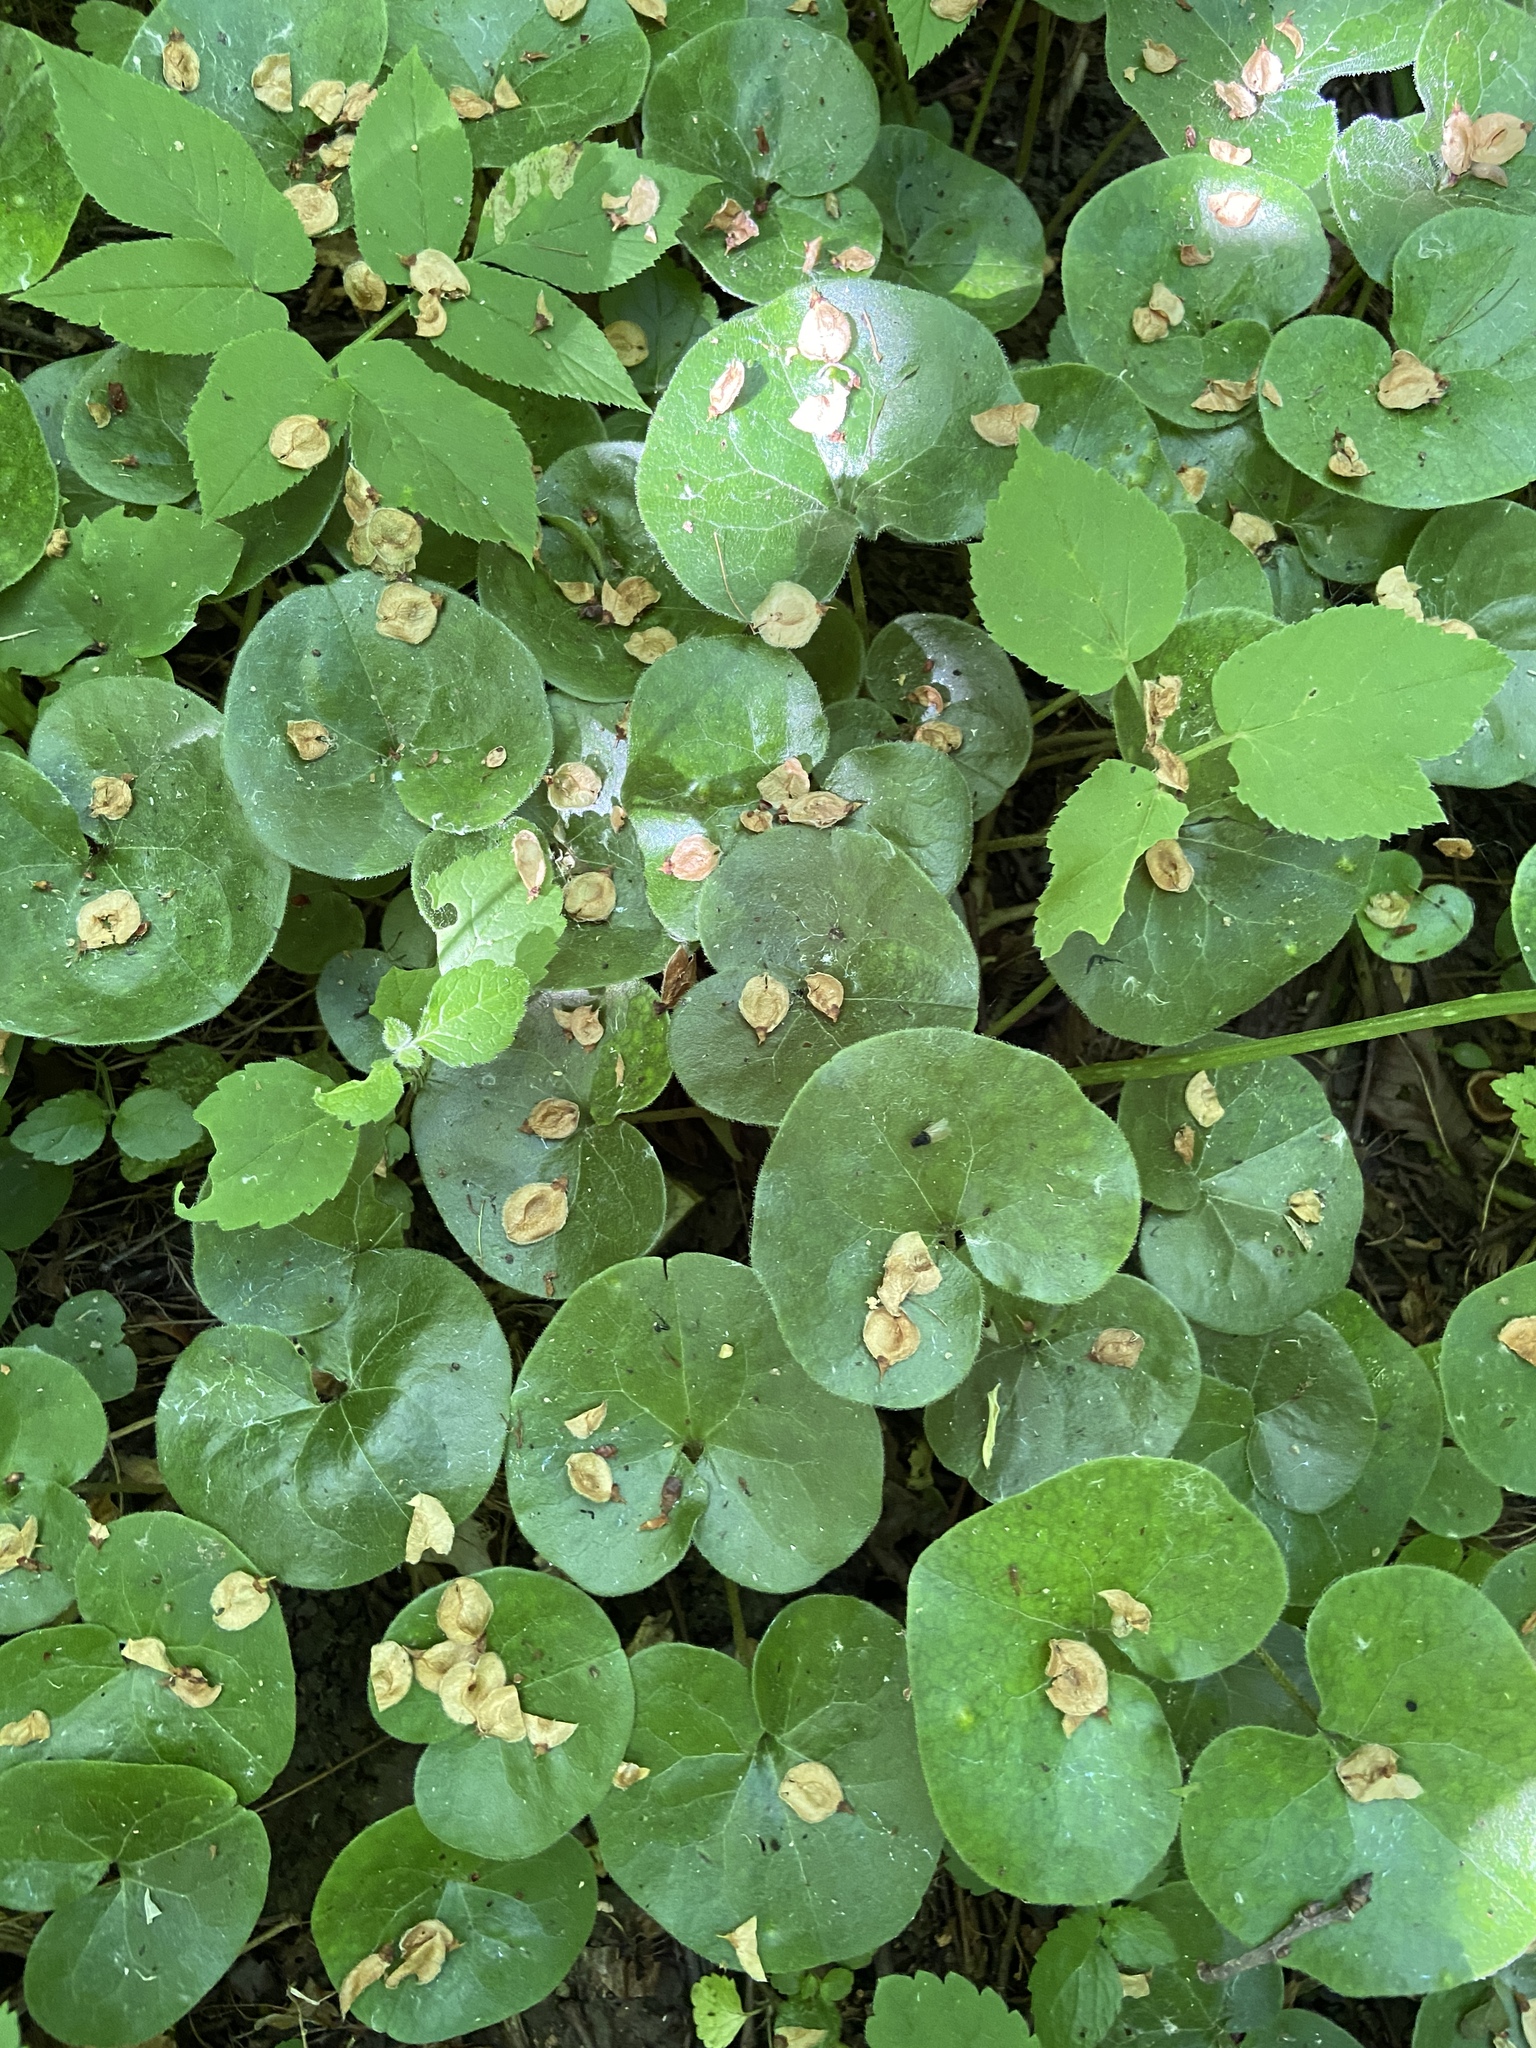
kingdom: Plantae
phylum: Tracheophyta
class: Magnoliopsida
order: Piperales
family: Aristolochiaceae
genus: Asarum
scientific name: Asarum europaeum
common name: Asarabacca
